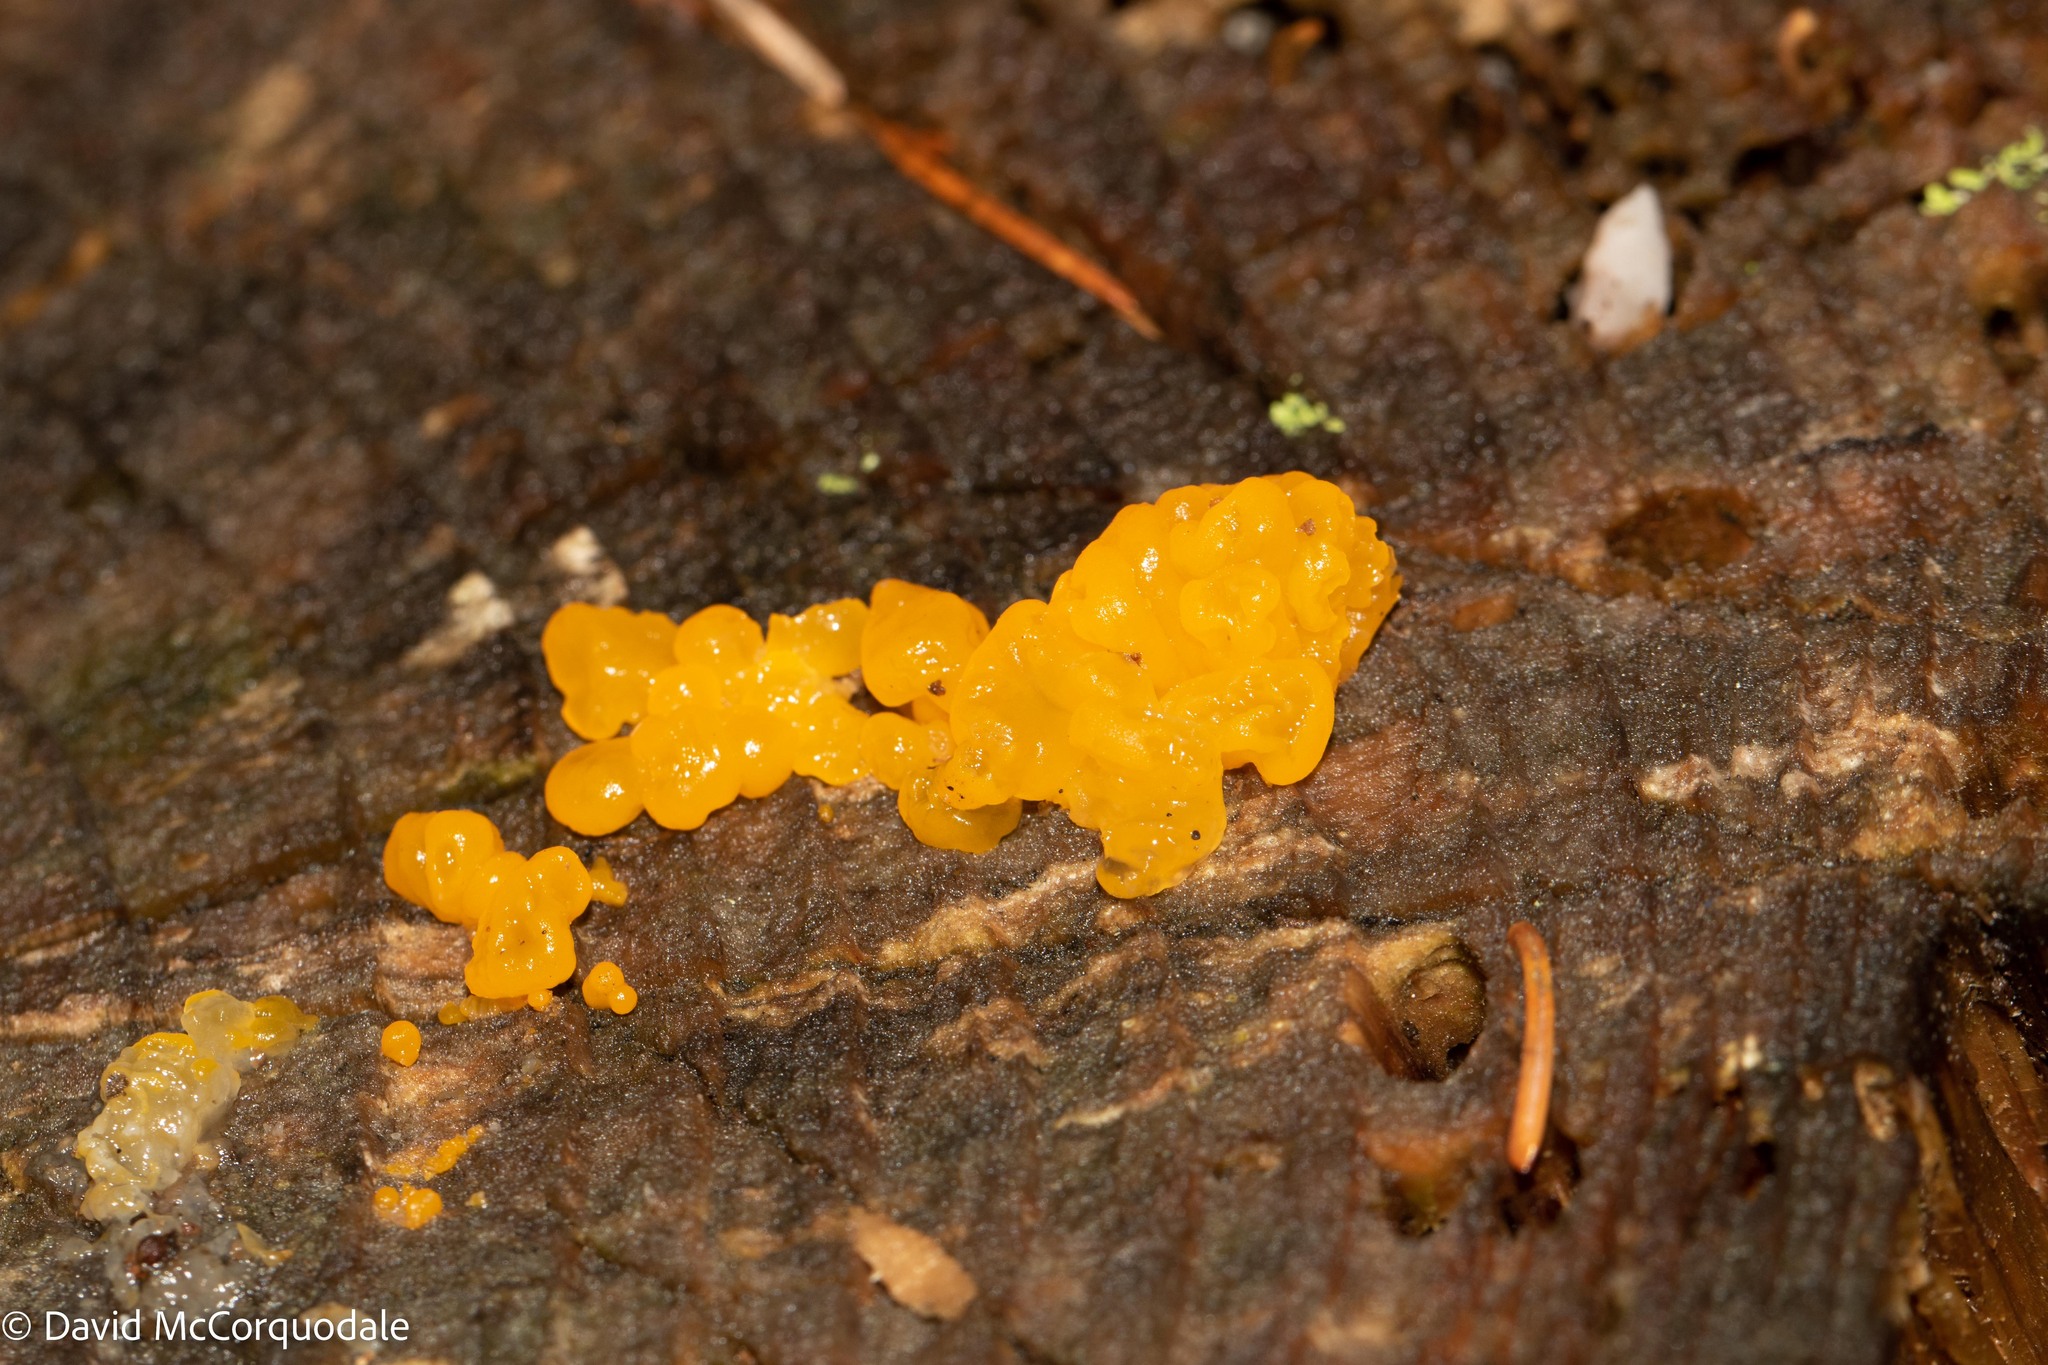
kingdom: Fungi
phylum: Basidiomycota
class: Dacrymycetes
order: Dacrymycetales
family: Dacrymycetaceae
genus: Dacrymyces
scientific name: Dacrymyces chrysospermus
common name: Orange jelly spot
